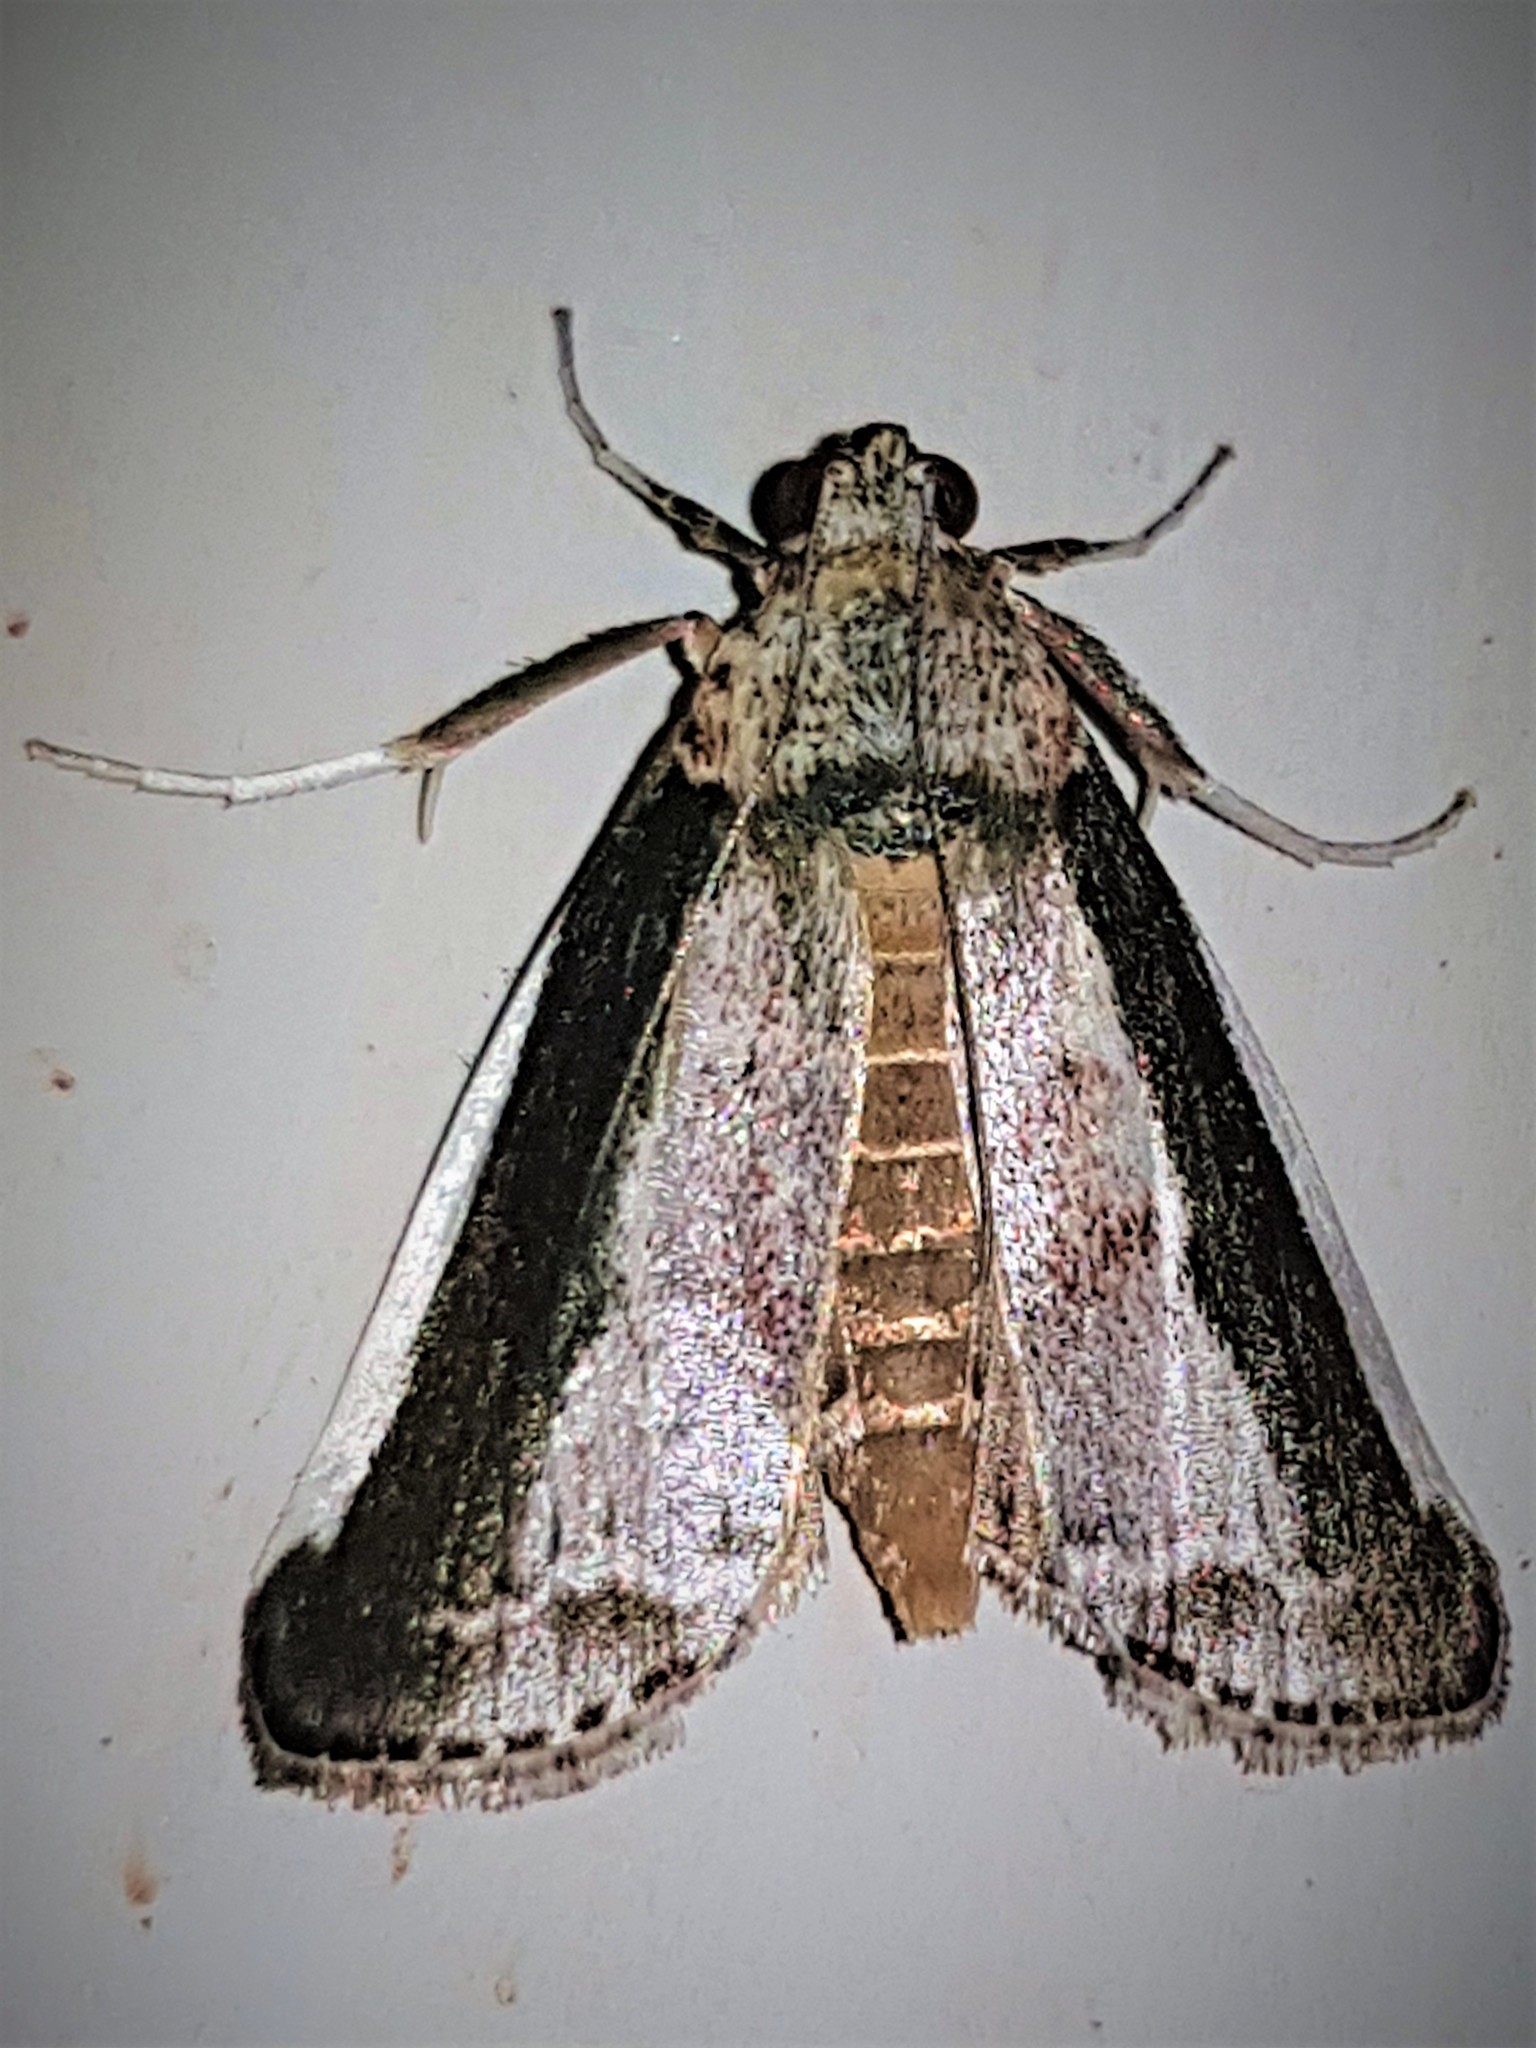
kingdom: Animalia
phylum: Arthropoda
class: Insecta
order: Lepidoptera
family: Pyralidae
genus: Carthara
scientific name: Carthara abrupta
